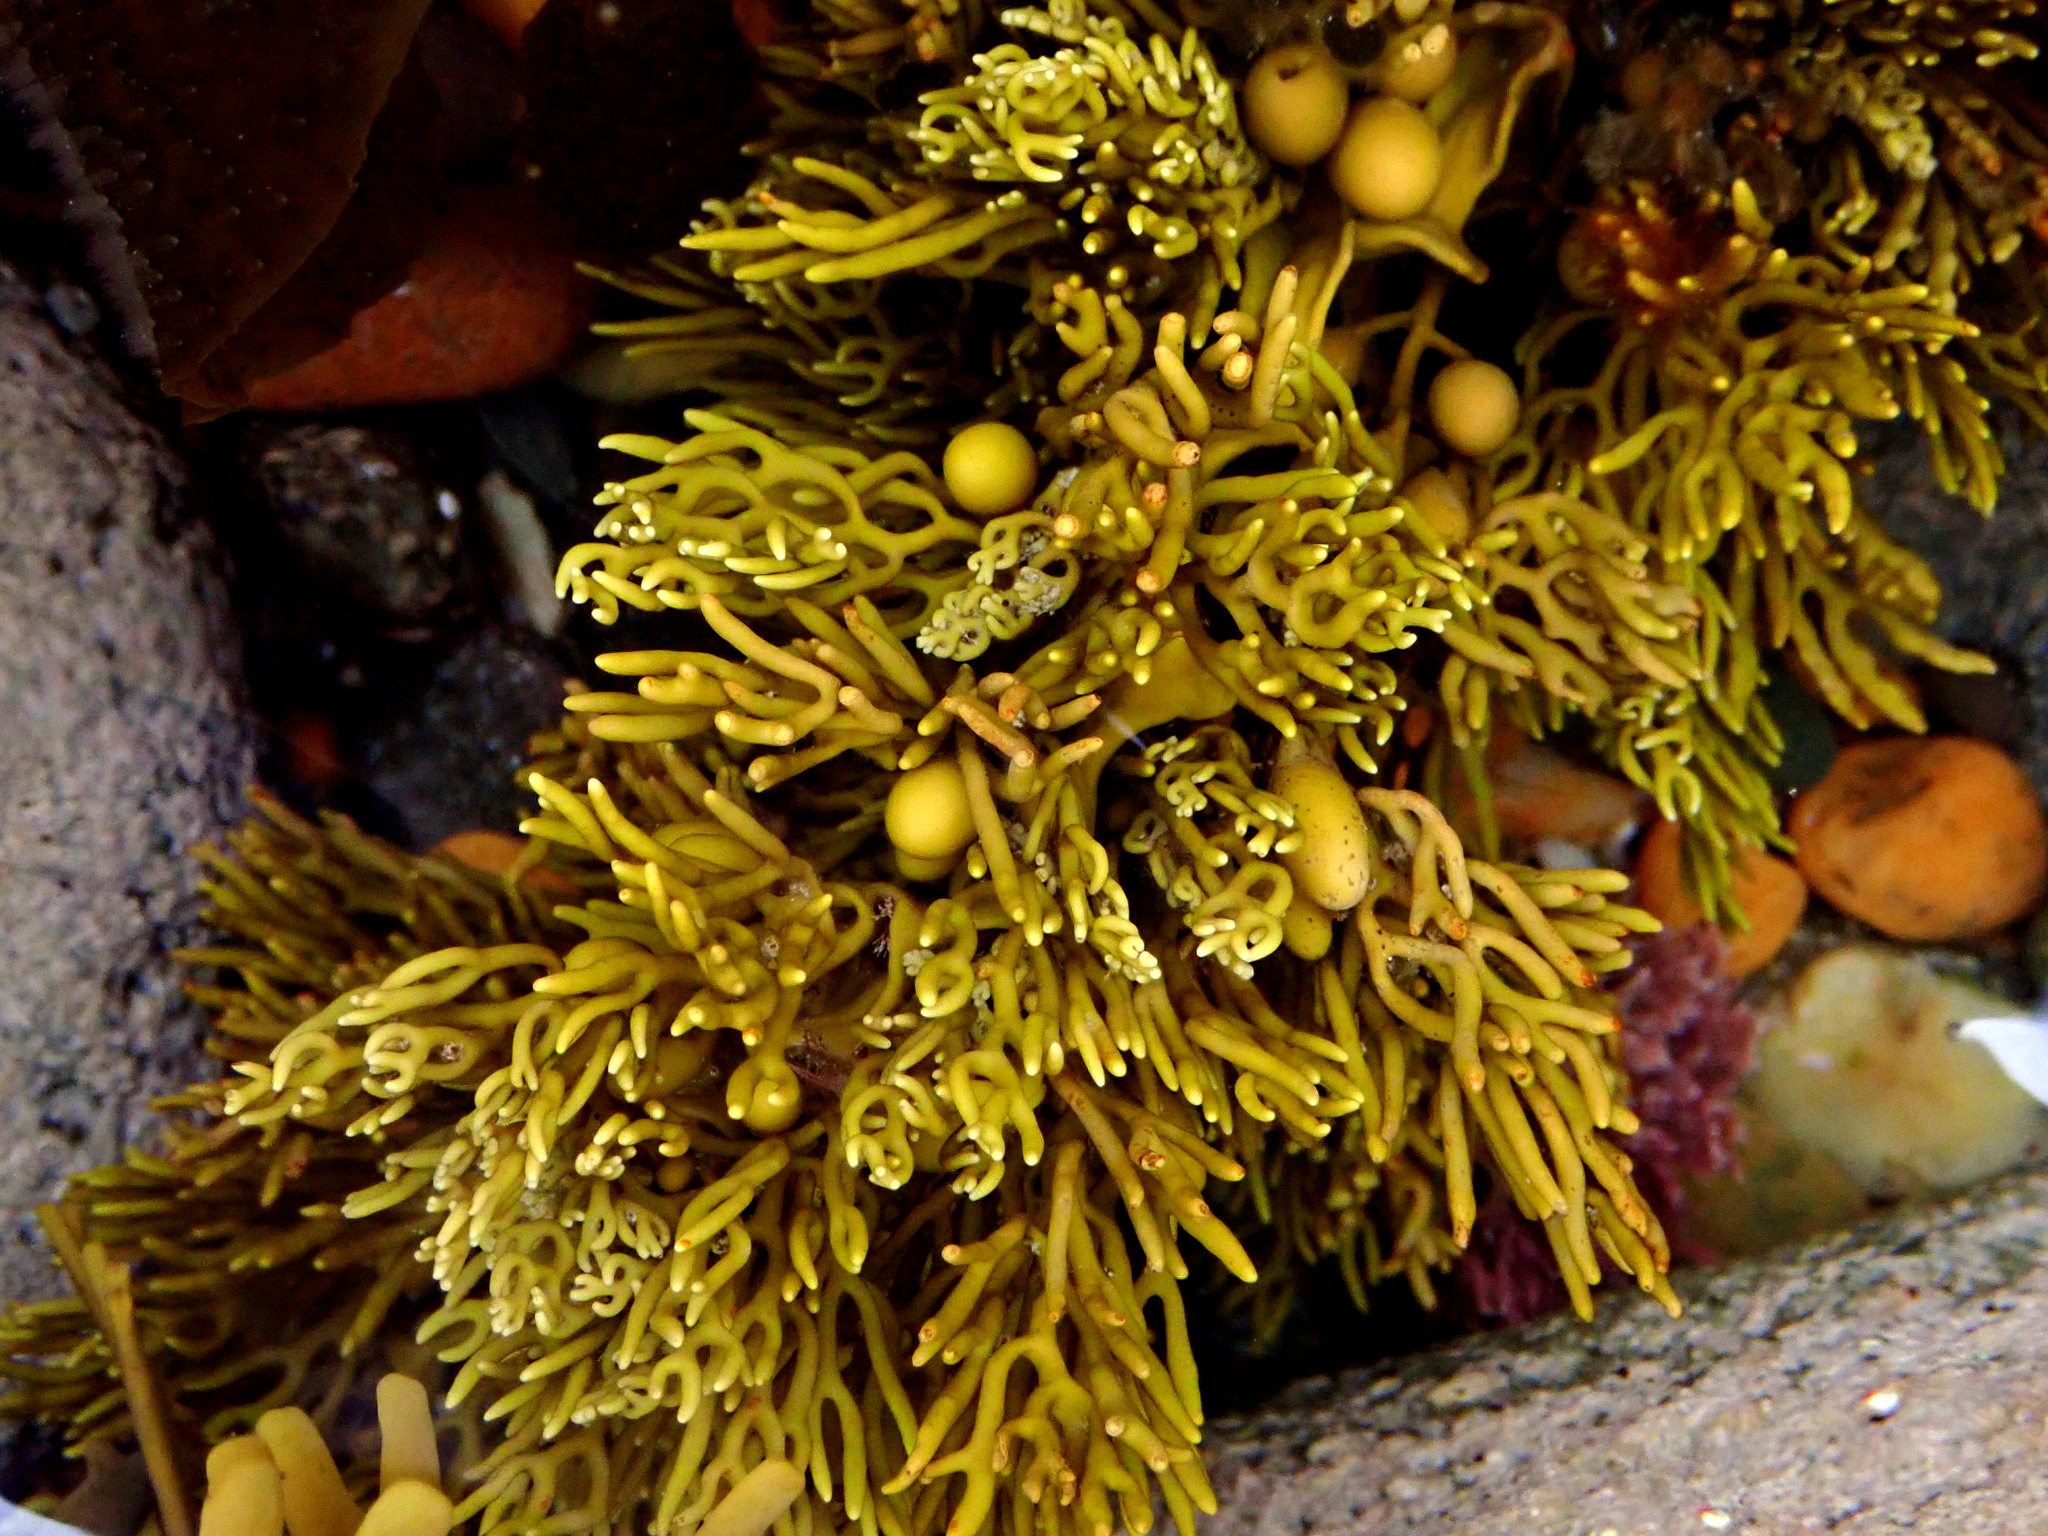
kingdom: Chromista
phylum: Ochrophyta
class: Phaeophyceae
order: Fucales
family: Sargassaceae
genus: Cystophora
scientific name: Cystophora scalaris
